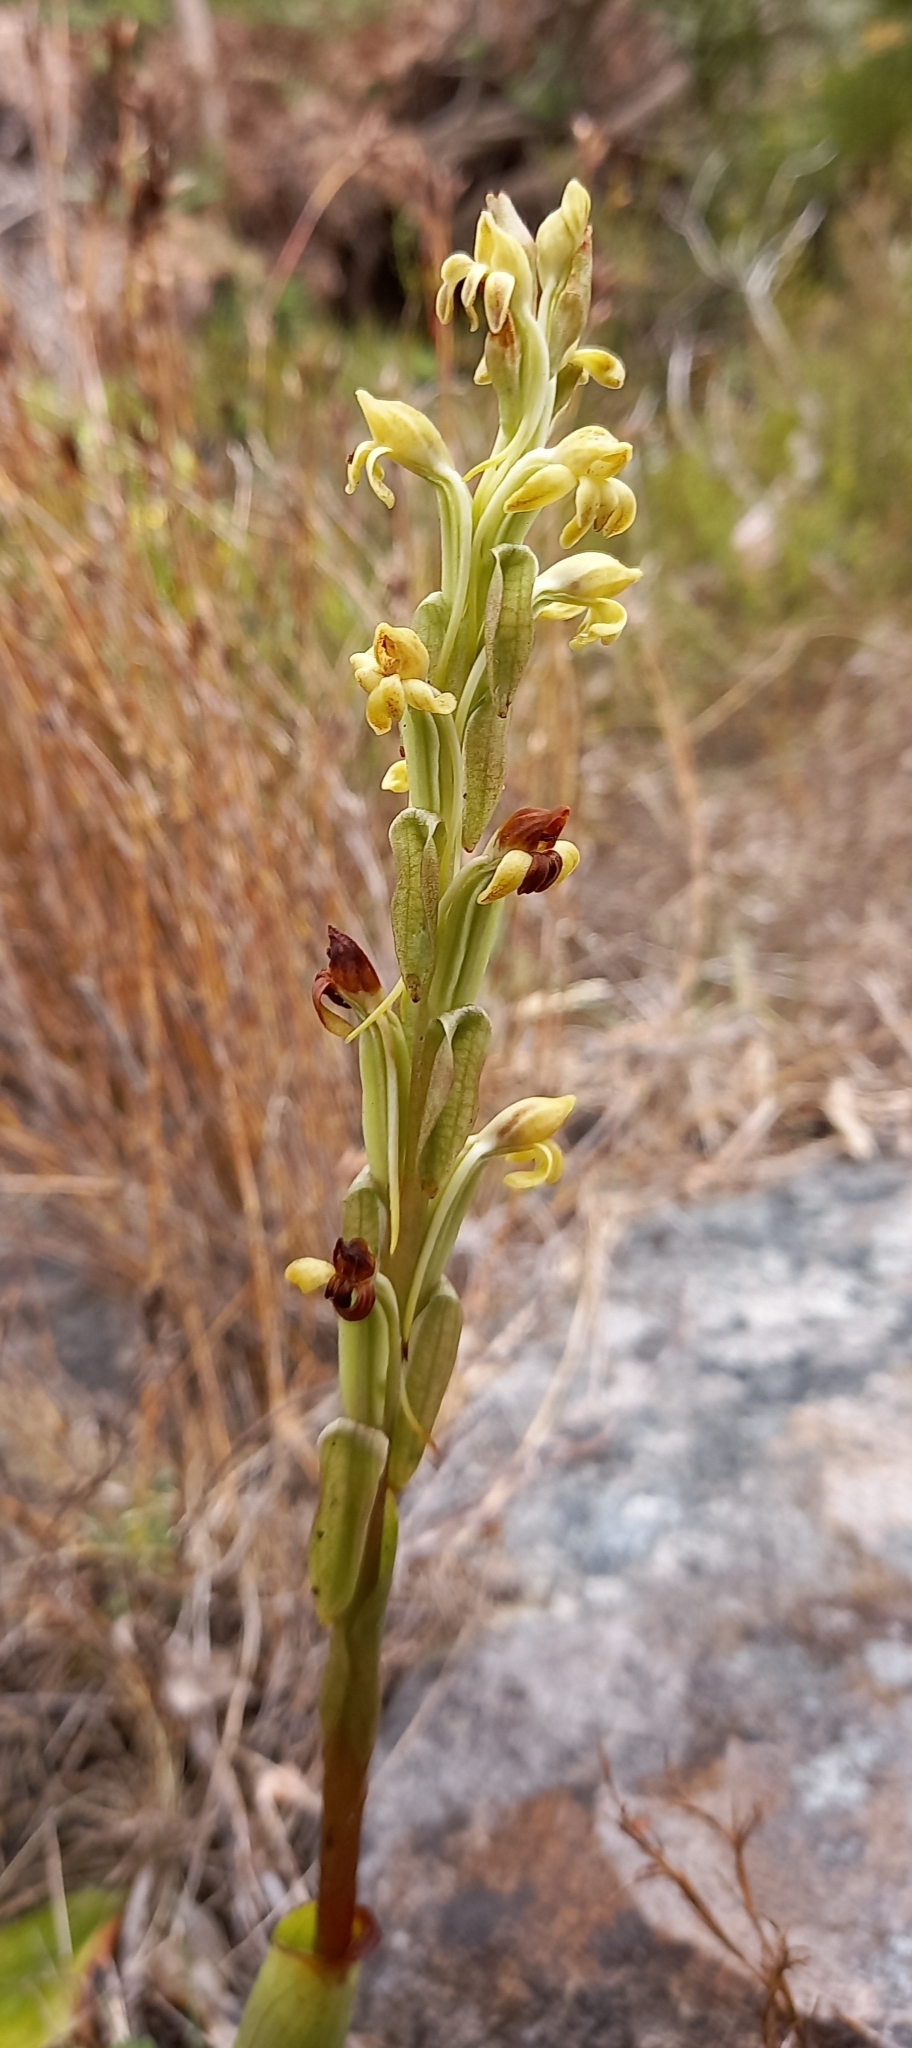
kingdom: Plantae
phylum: Tracheophyta
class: Liliopsida
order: Asparagales
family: Orchidaceae
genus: Satyrium
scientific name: Satyrium bicorne
